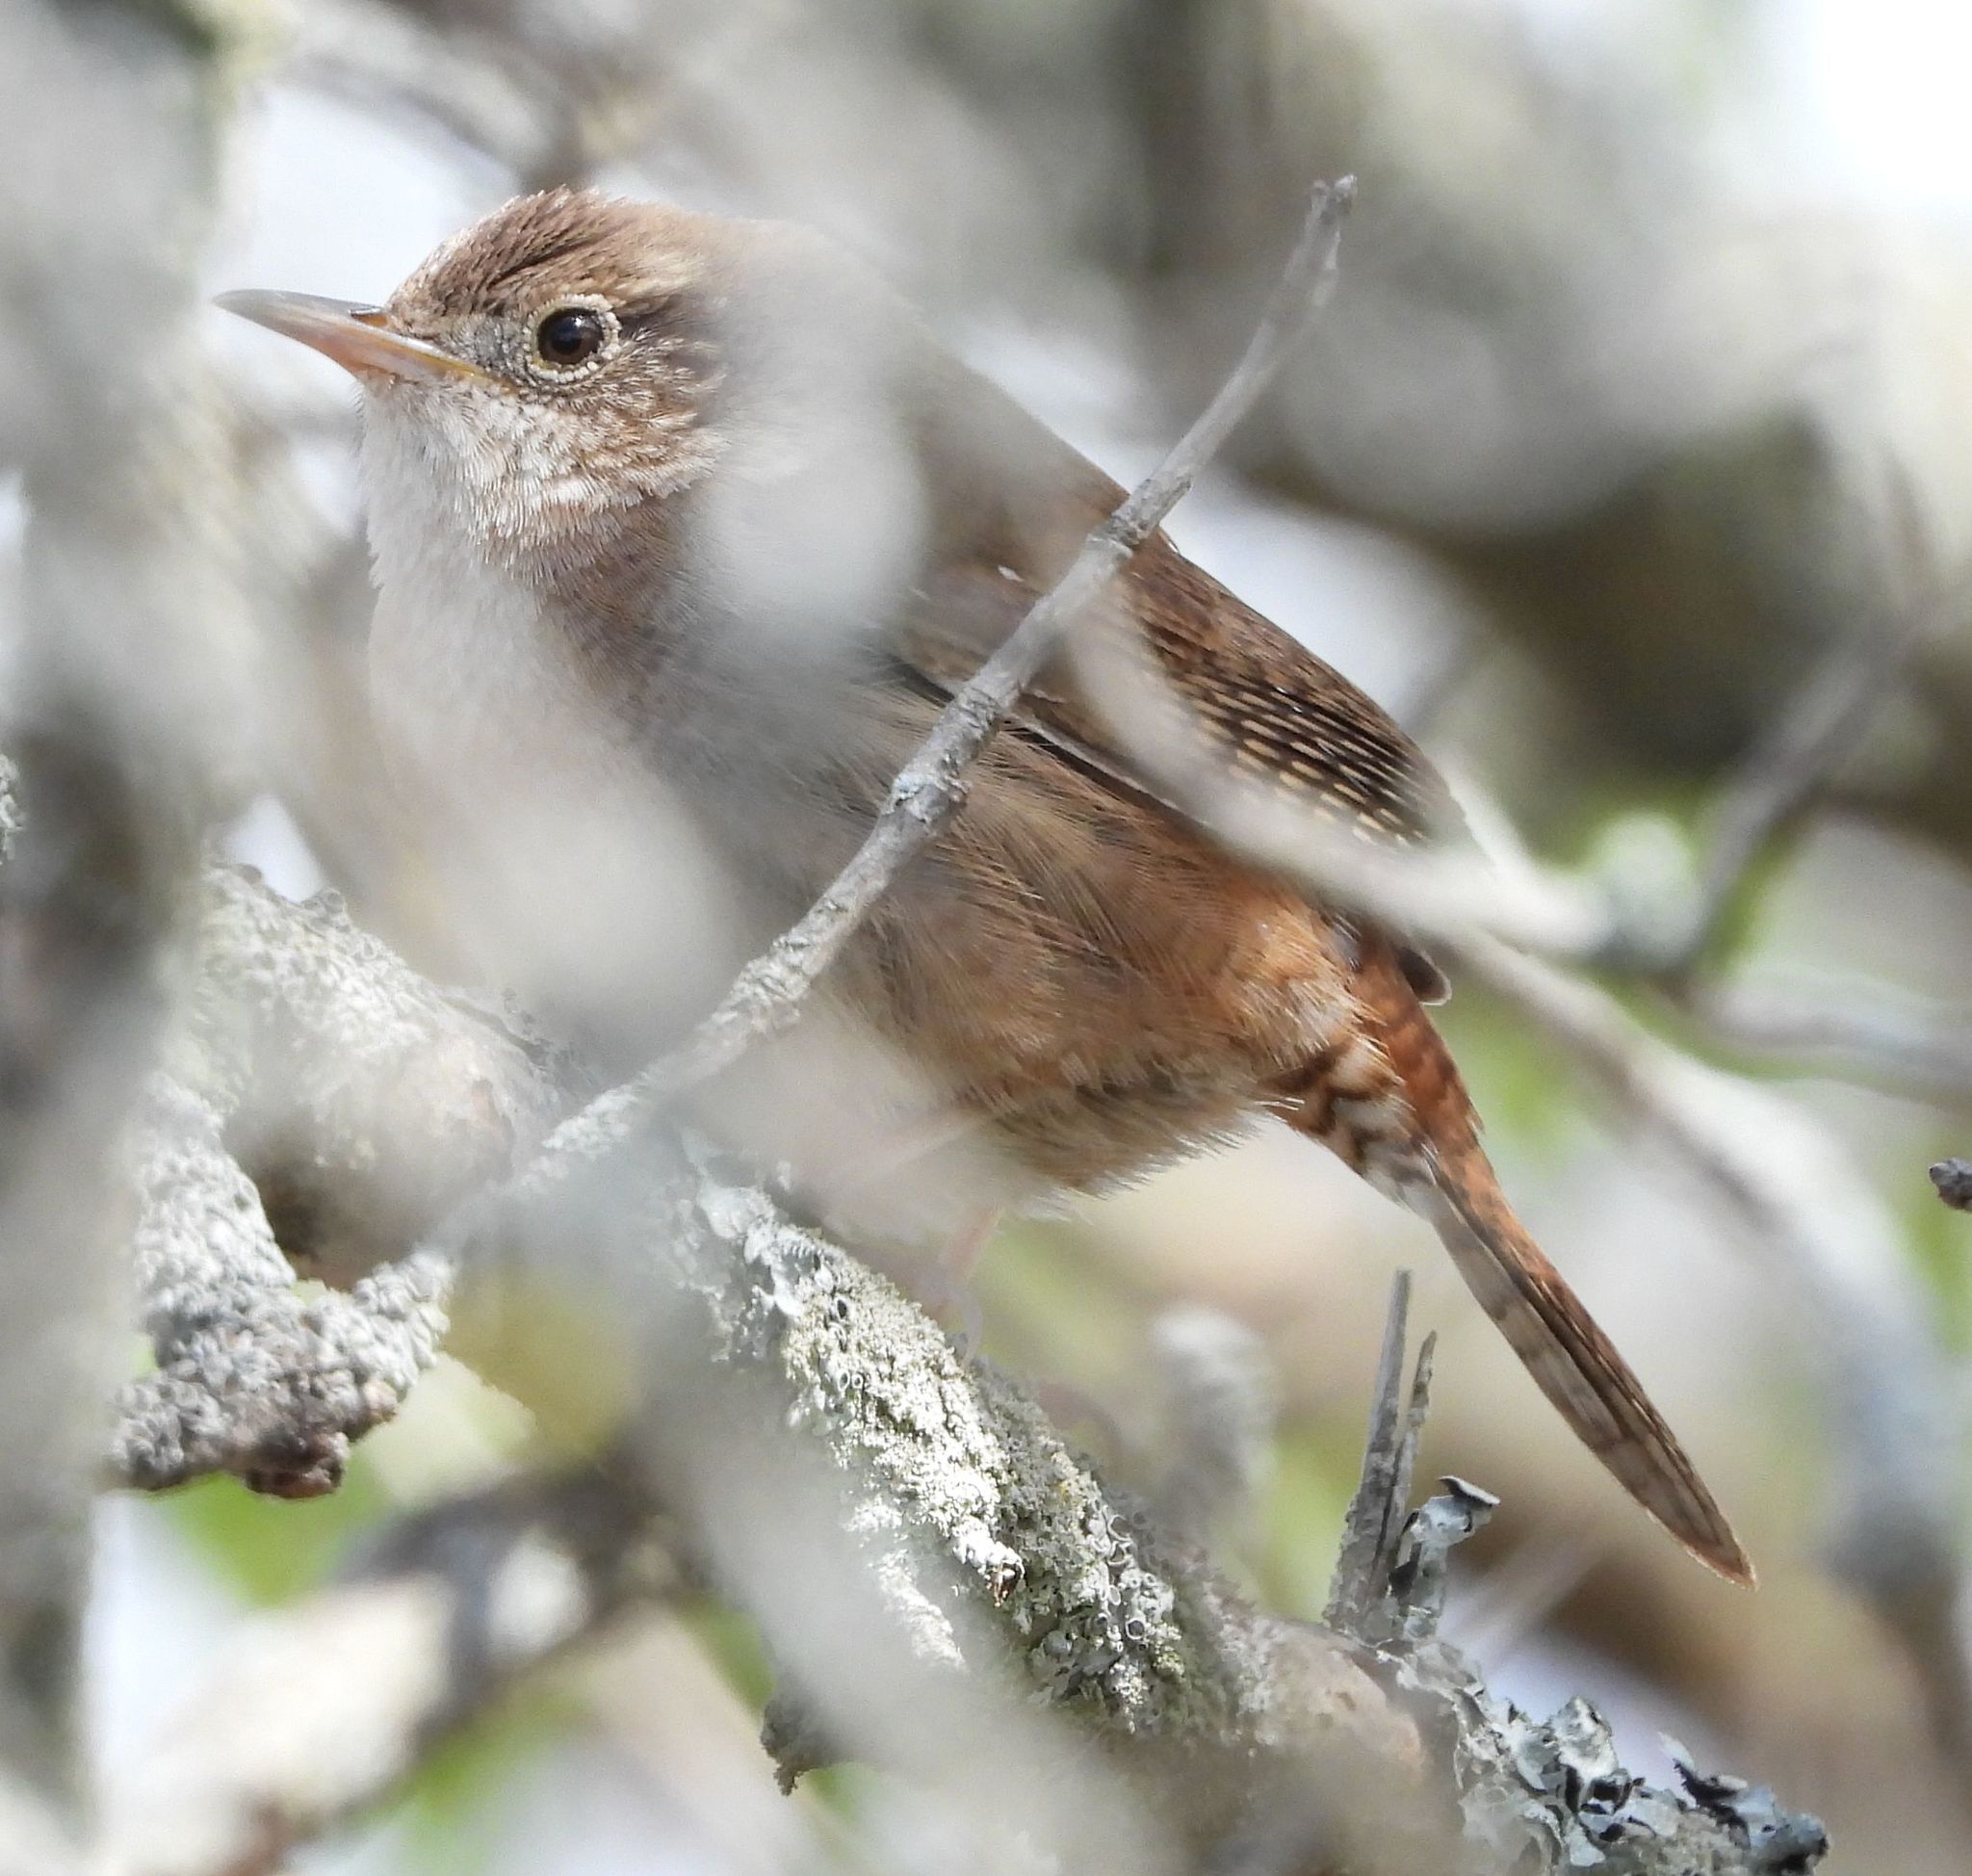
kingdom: Animalia
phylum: Chordata
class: Aves
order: Passeriformes
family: Troglodytidae
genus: Troglodytes
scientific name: Troglodytes aedon
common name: House wren
